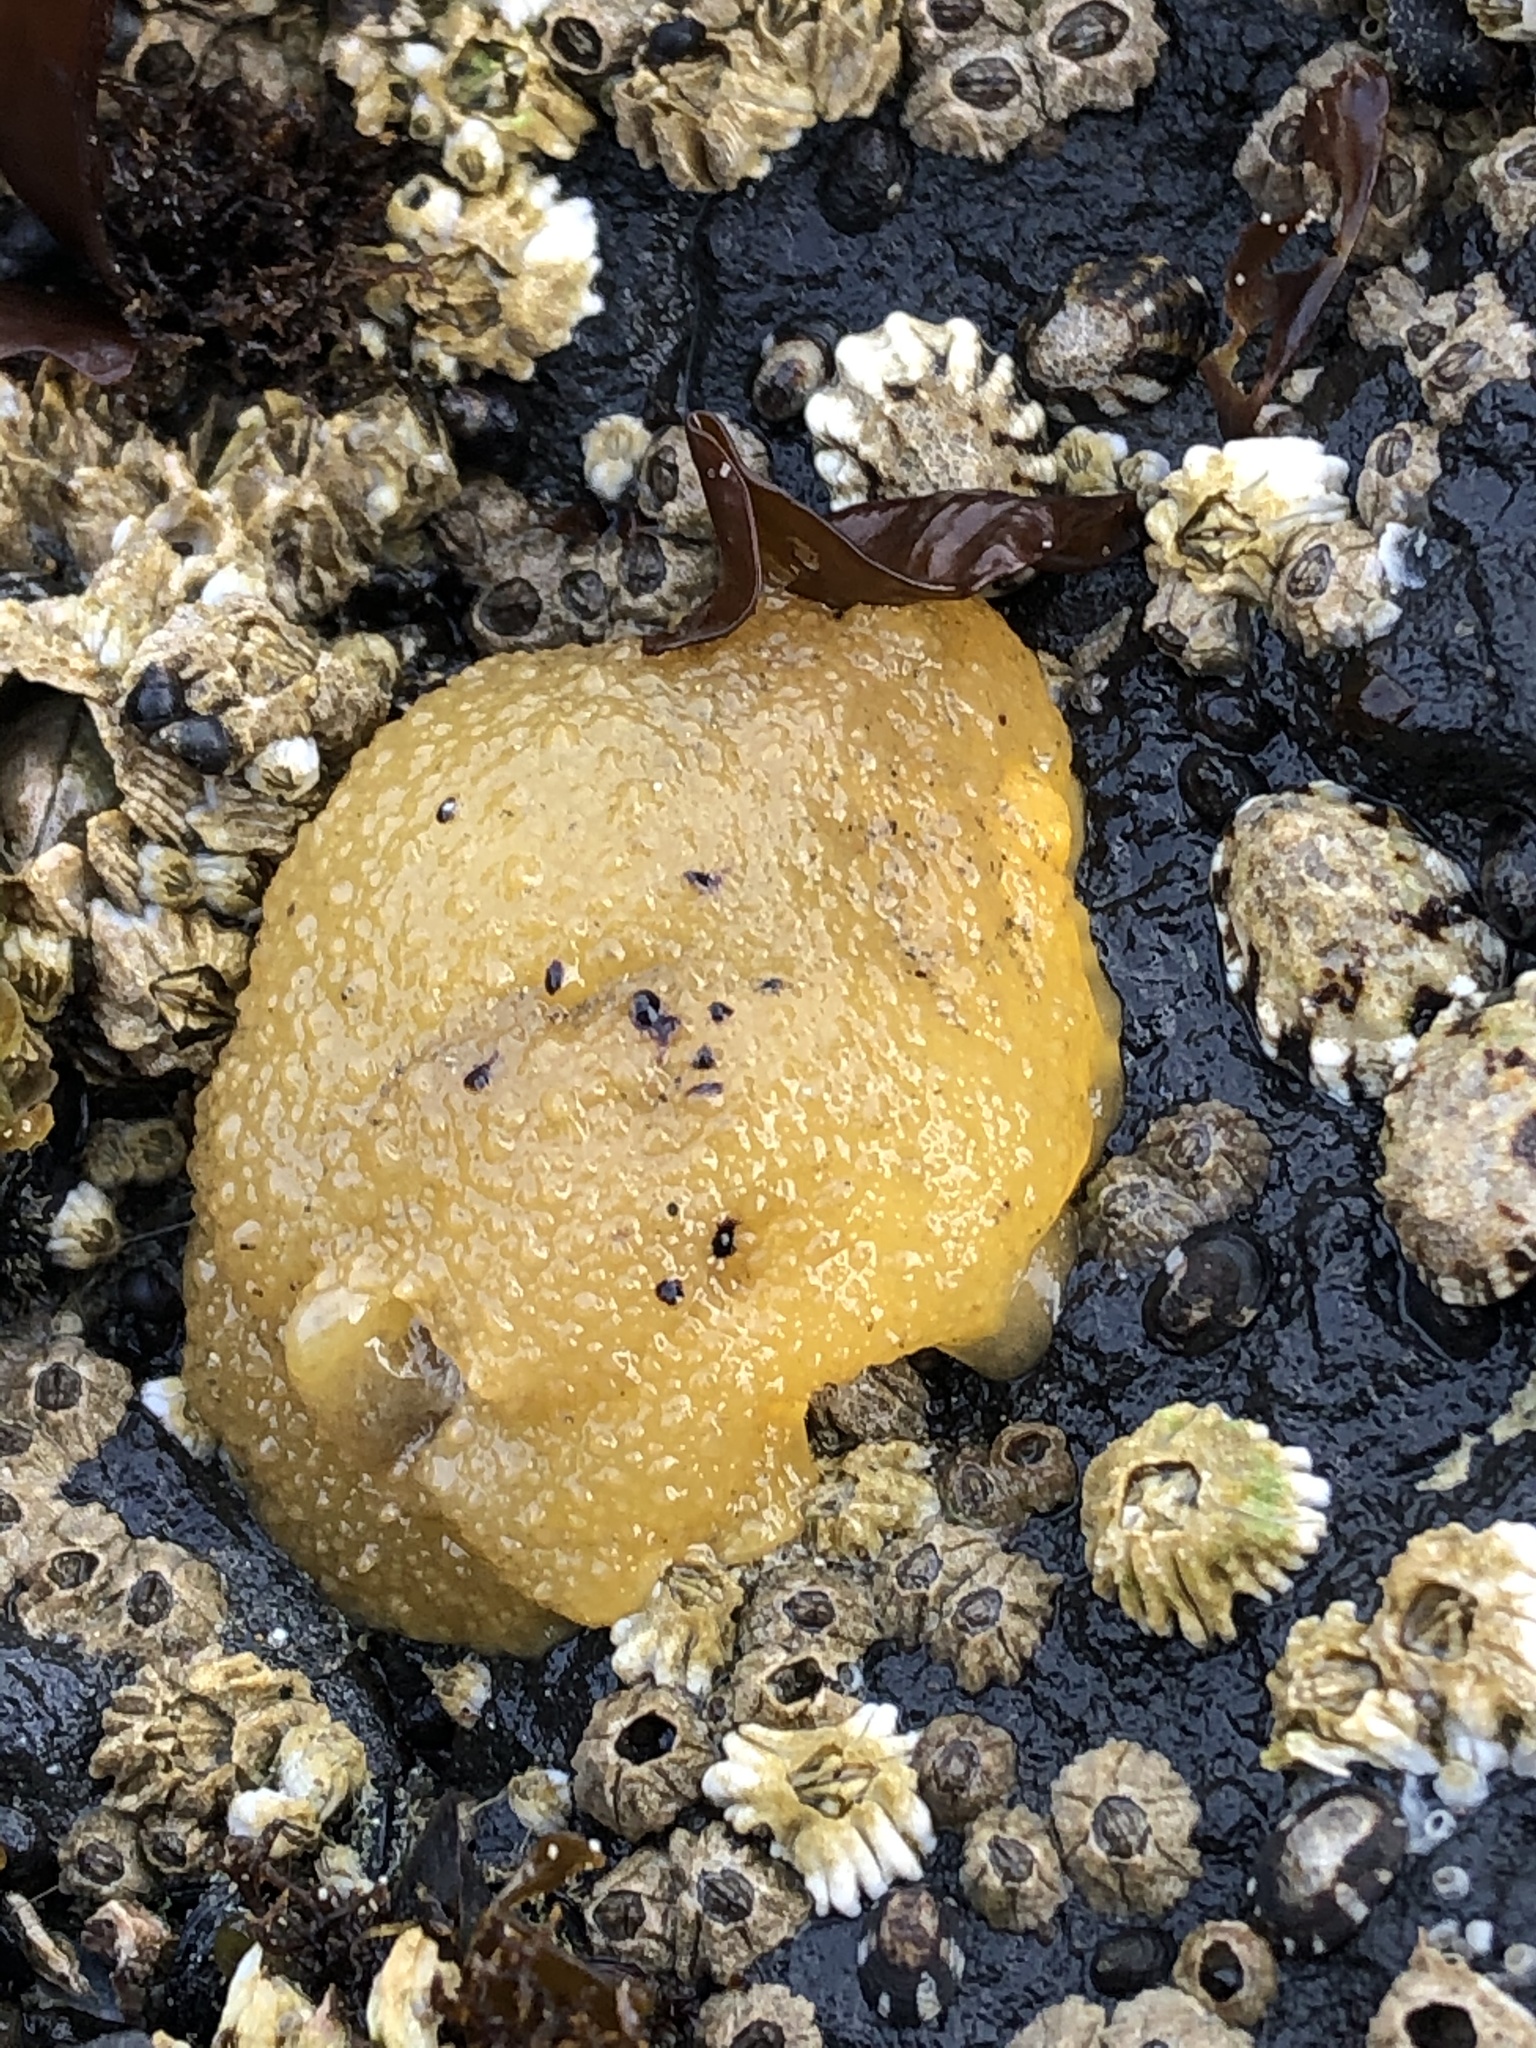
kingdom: Animalia
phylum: Mollusca
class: Gastropoda
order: Nudibranchia
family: Dorididae
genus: Doris
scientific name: Doris montereyensis
